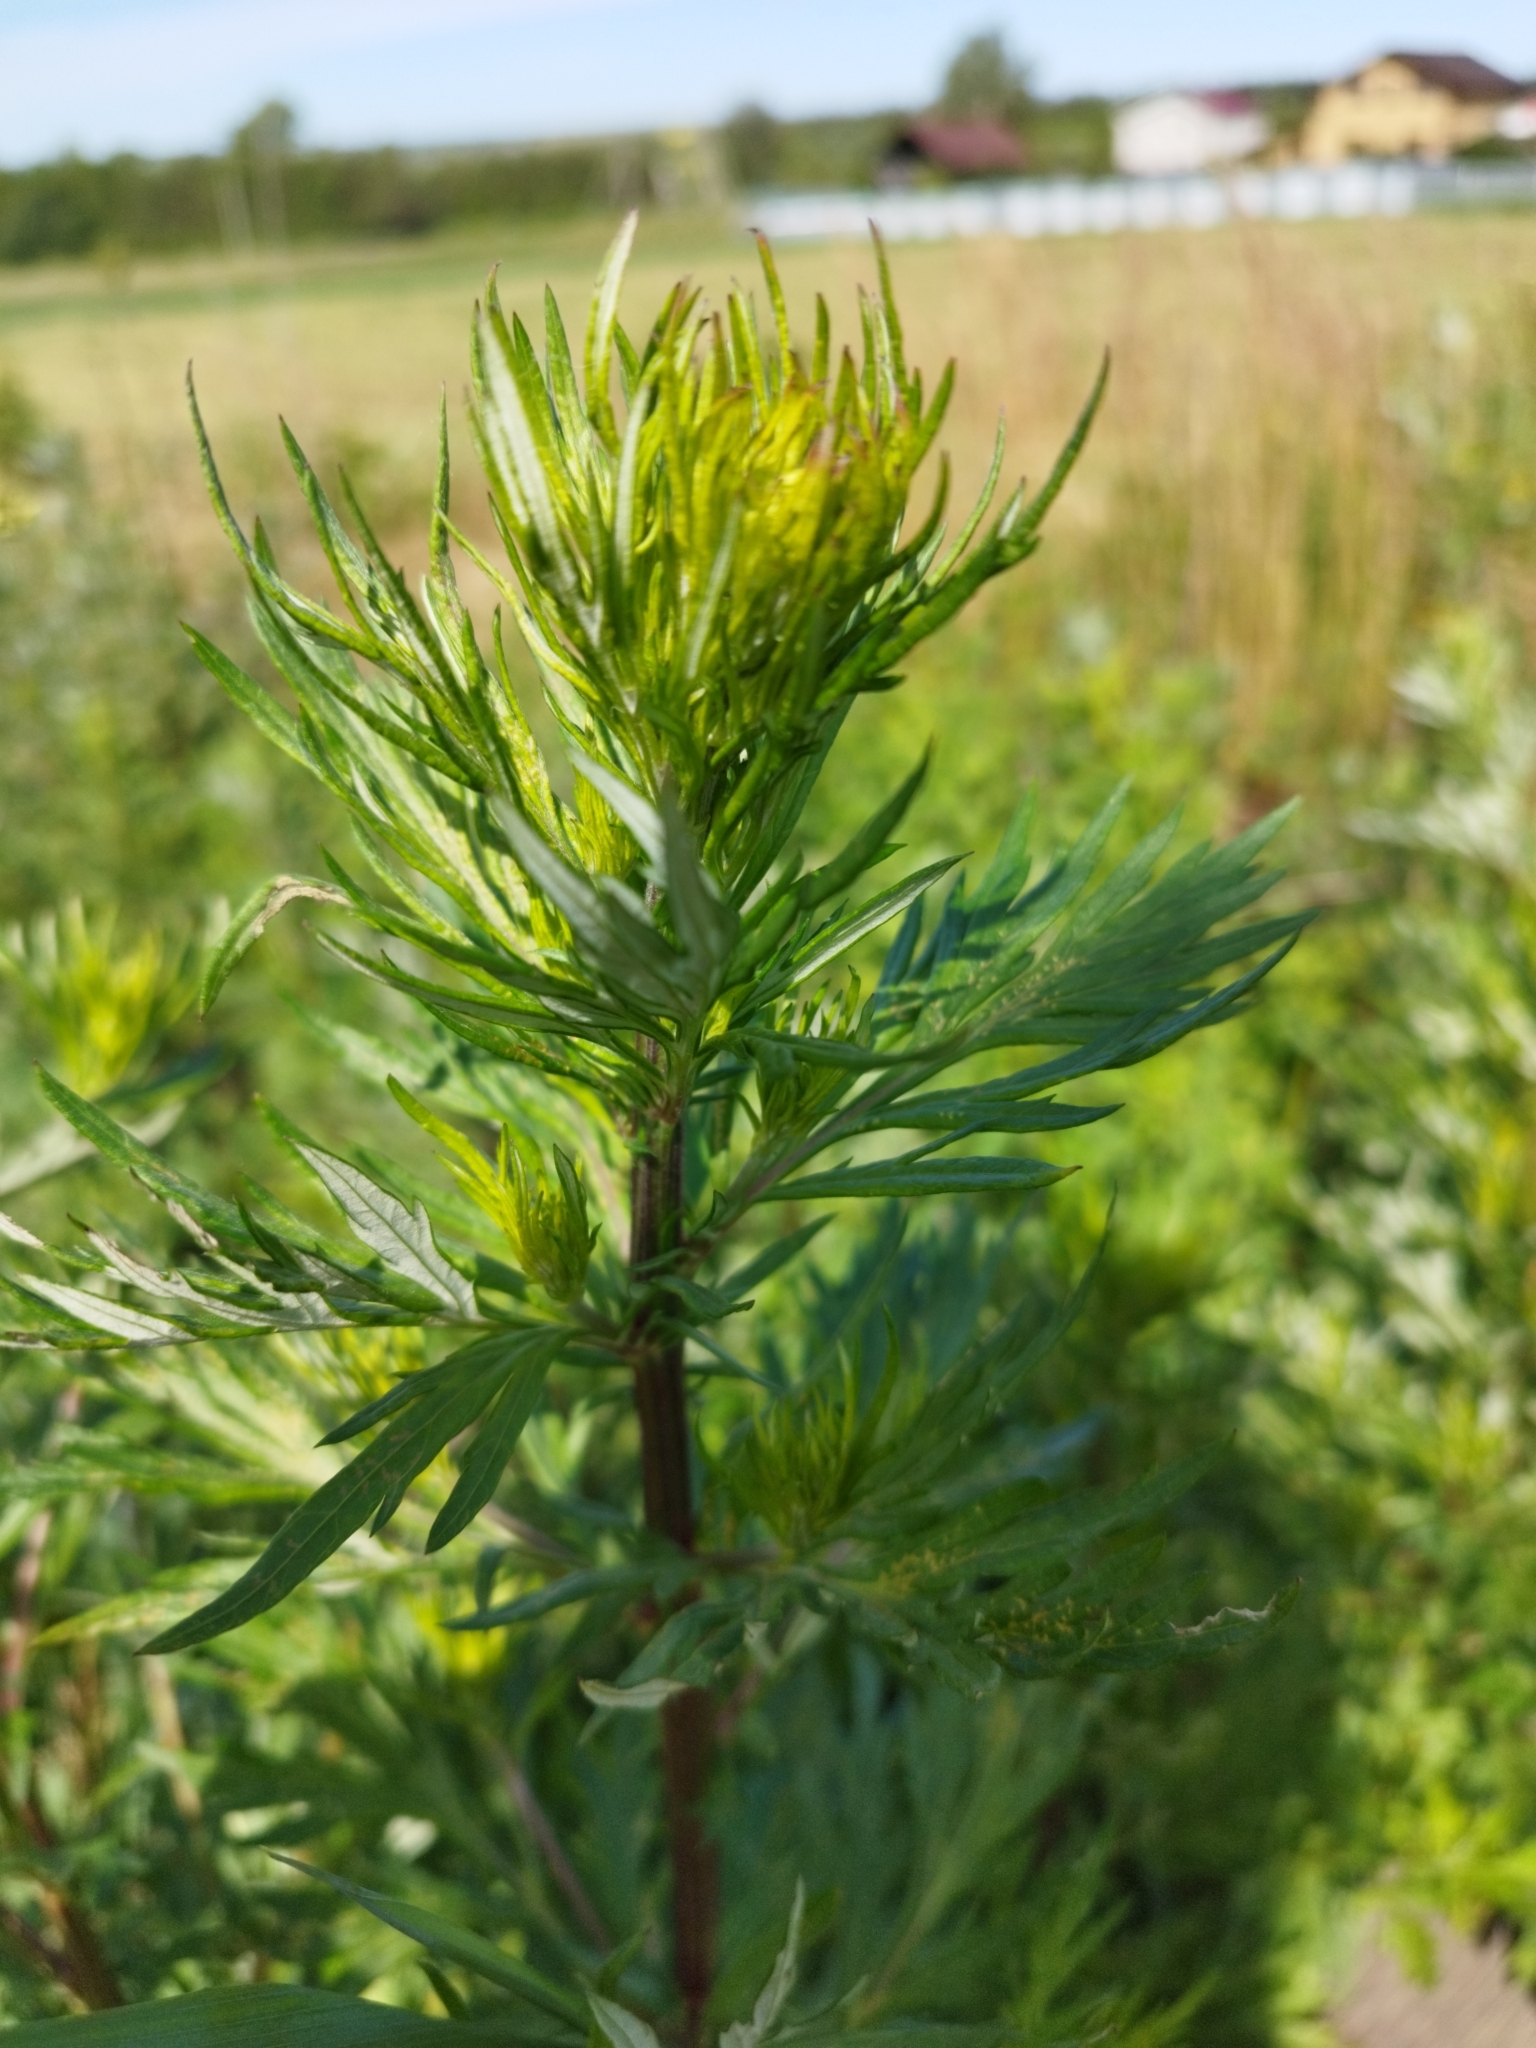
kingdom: Plantae
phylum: Tracheophyta
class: Magnoliopsida
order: Asterales
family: Asteraceae
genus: Artemisia
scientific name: Artemisia vulgaris
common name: Mugwort
